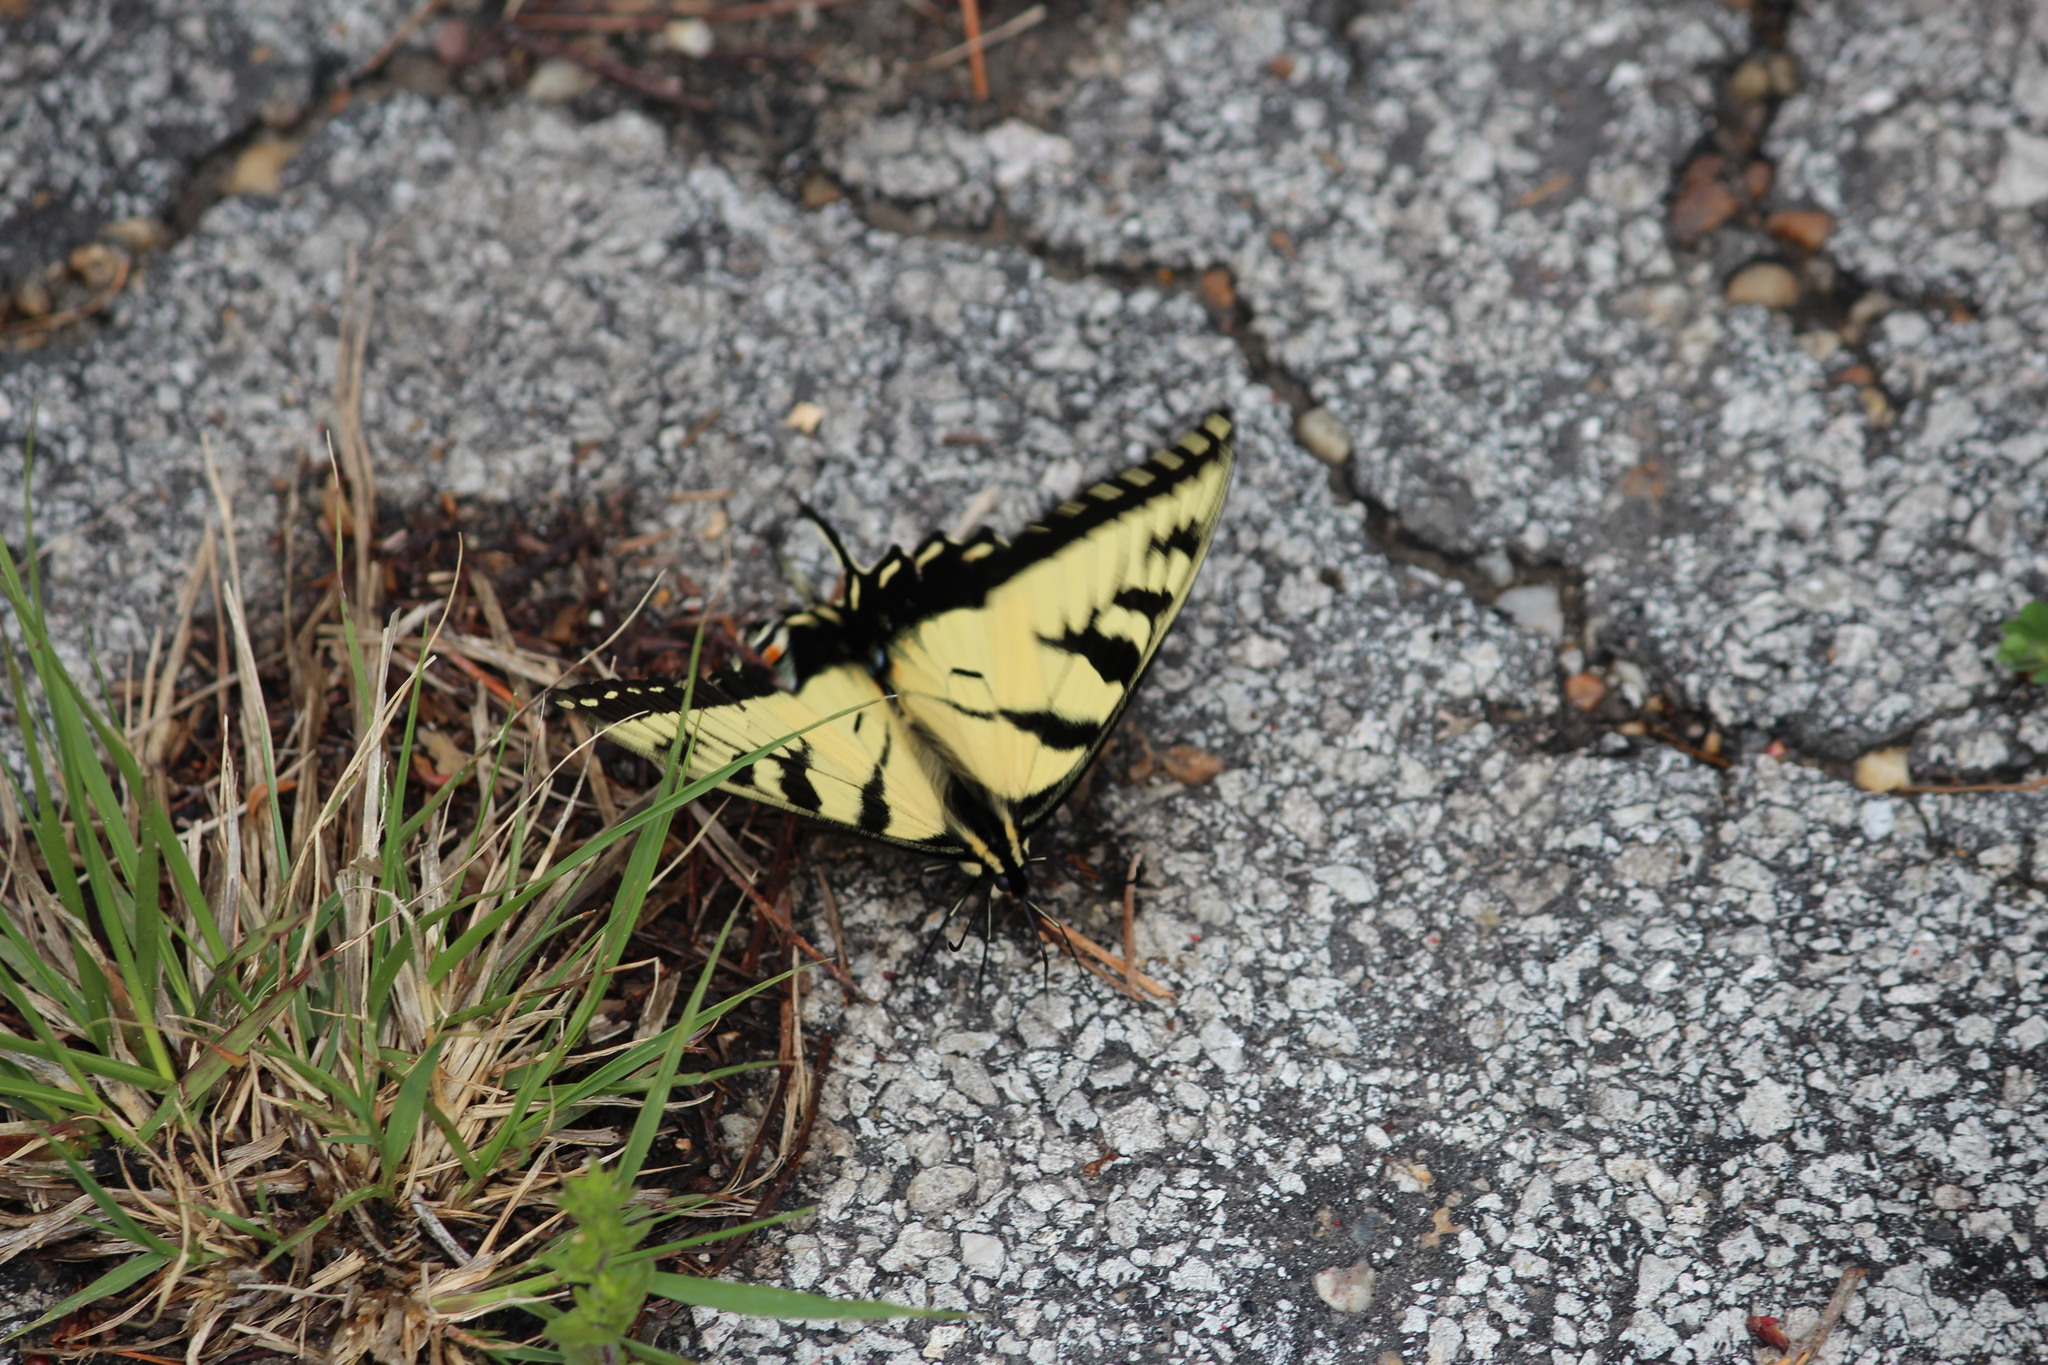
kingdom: Animalia
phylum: Arthropoda
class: Insecta
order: Lepidoptera
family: Papilionidae
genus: Papilio
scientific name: Papilio glaucus
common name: Tiger swallowtail
